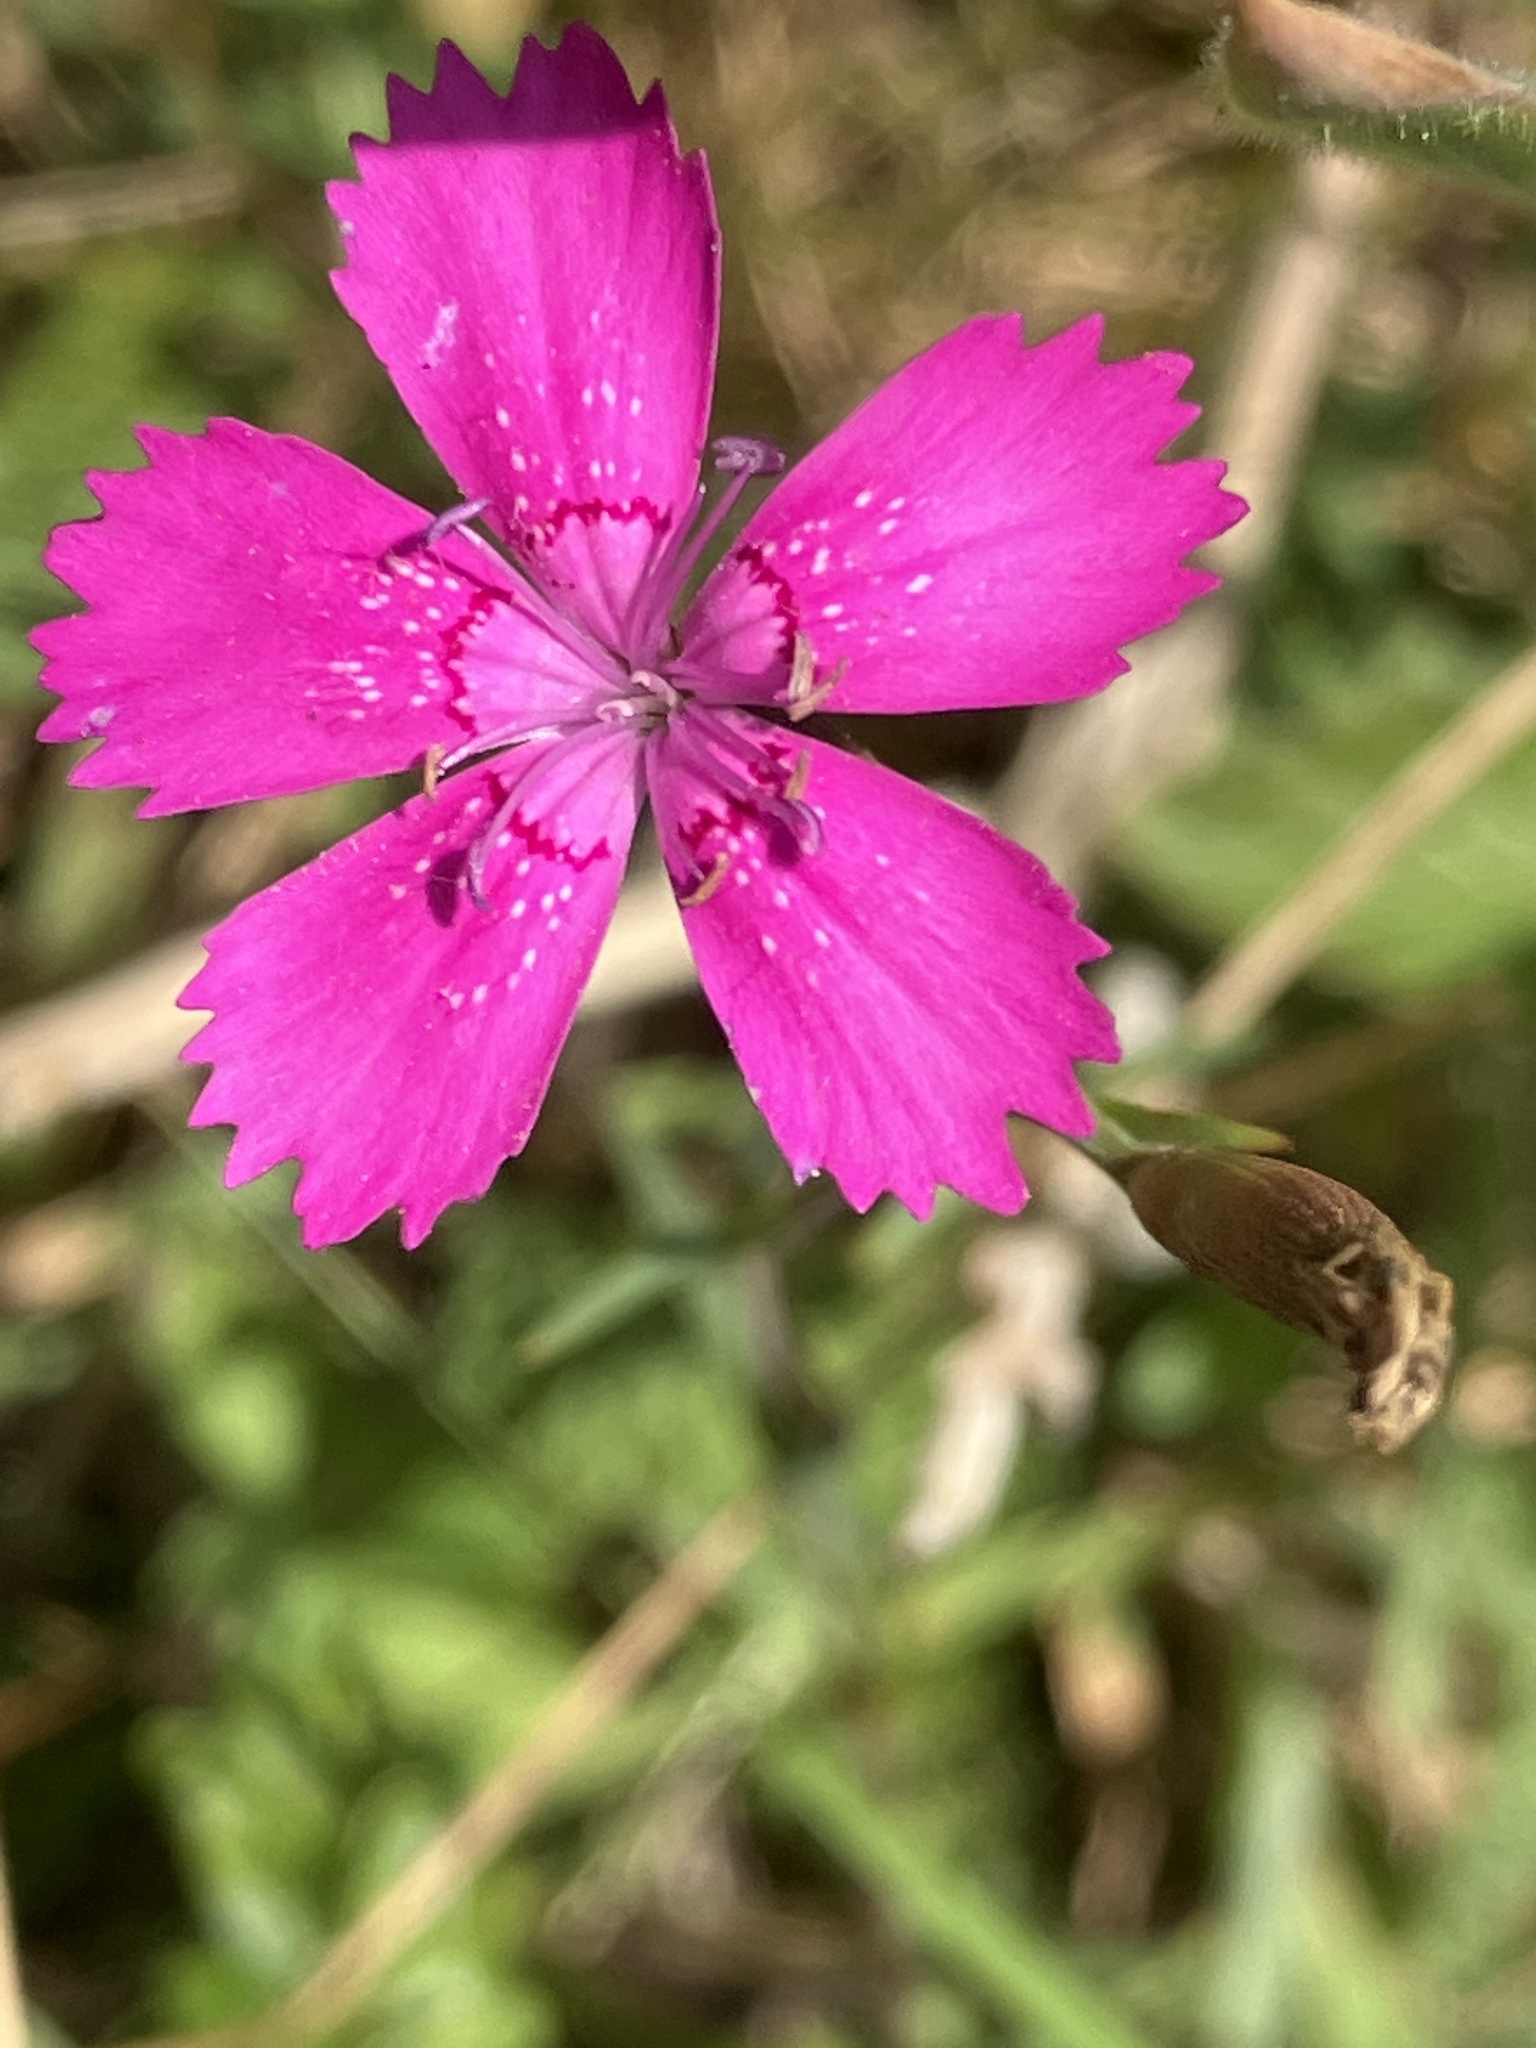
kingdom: Plantae
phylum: Tracheophyta
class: Magnoliopsida
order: Caryophyllales
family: Caryophyllaceae
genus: Dianthus
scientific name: Dianthus deltoides
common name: Maiden pink
